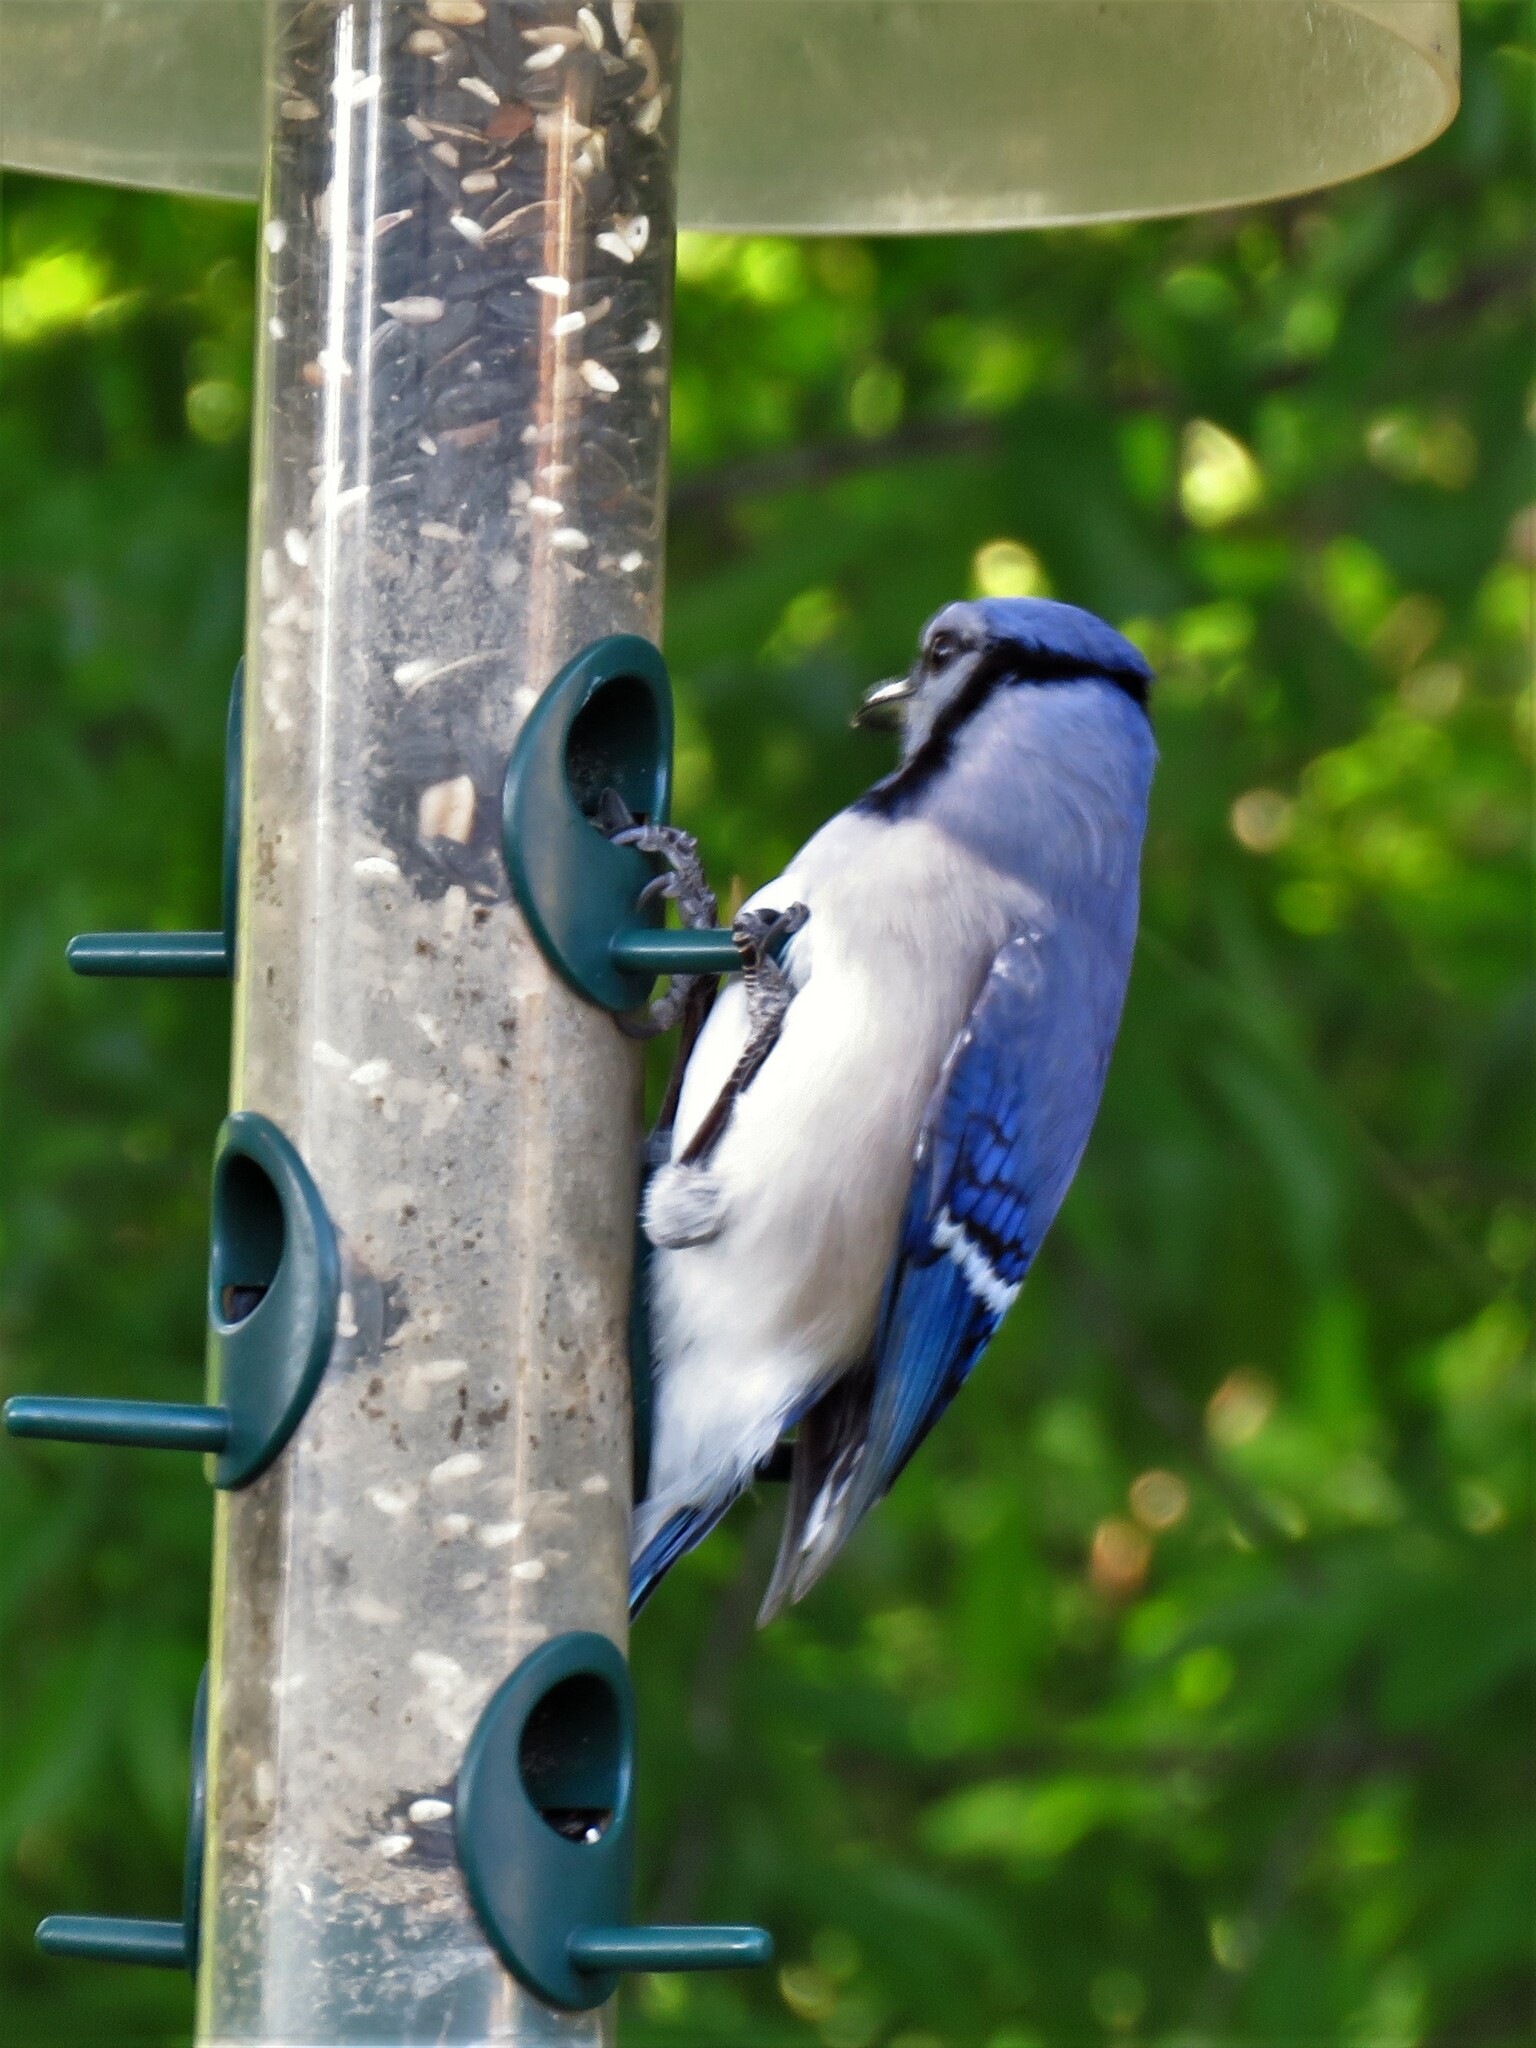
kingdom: Animalia
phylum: Chordata
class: Aves
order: Passeriformes
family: Corvidae
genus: Cyanocitta
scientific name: Cyanocitta cristata
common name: Blue jay
